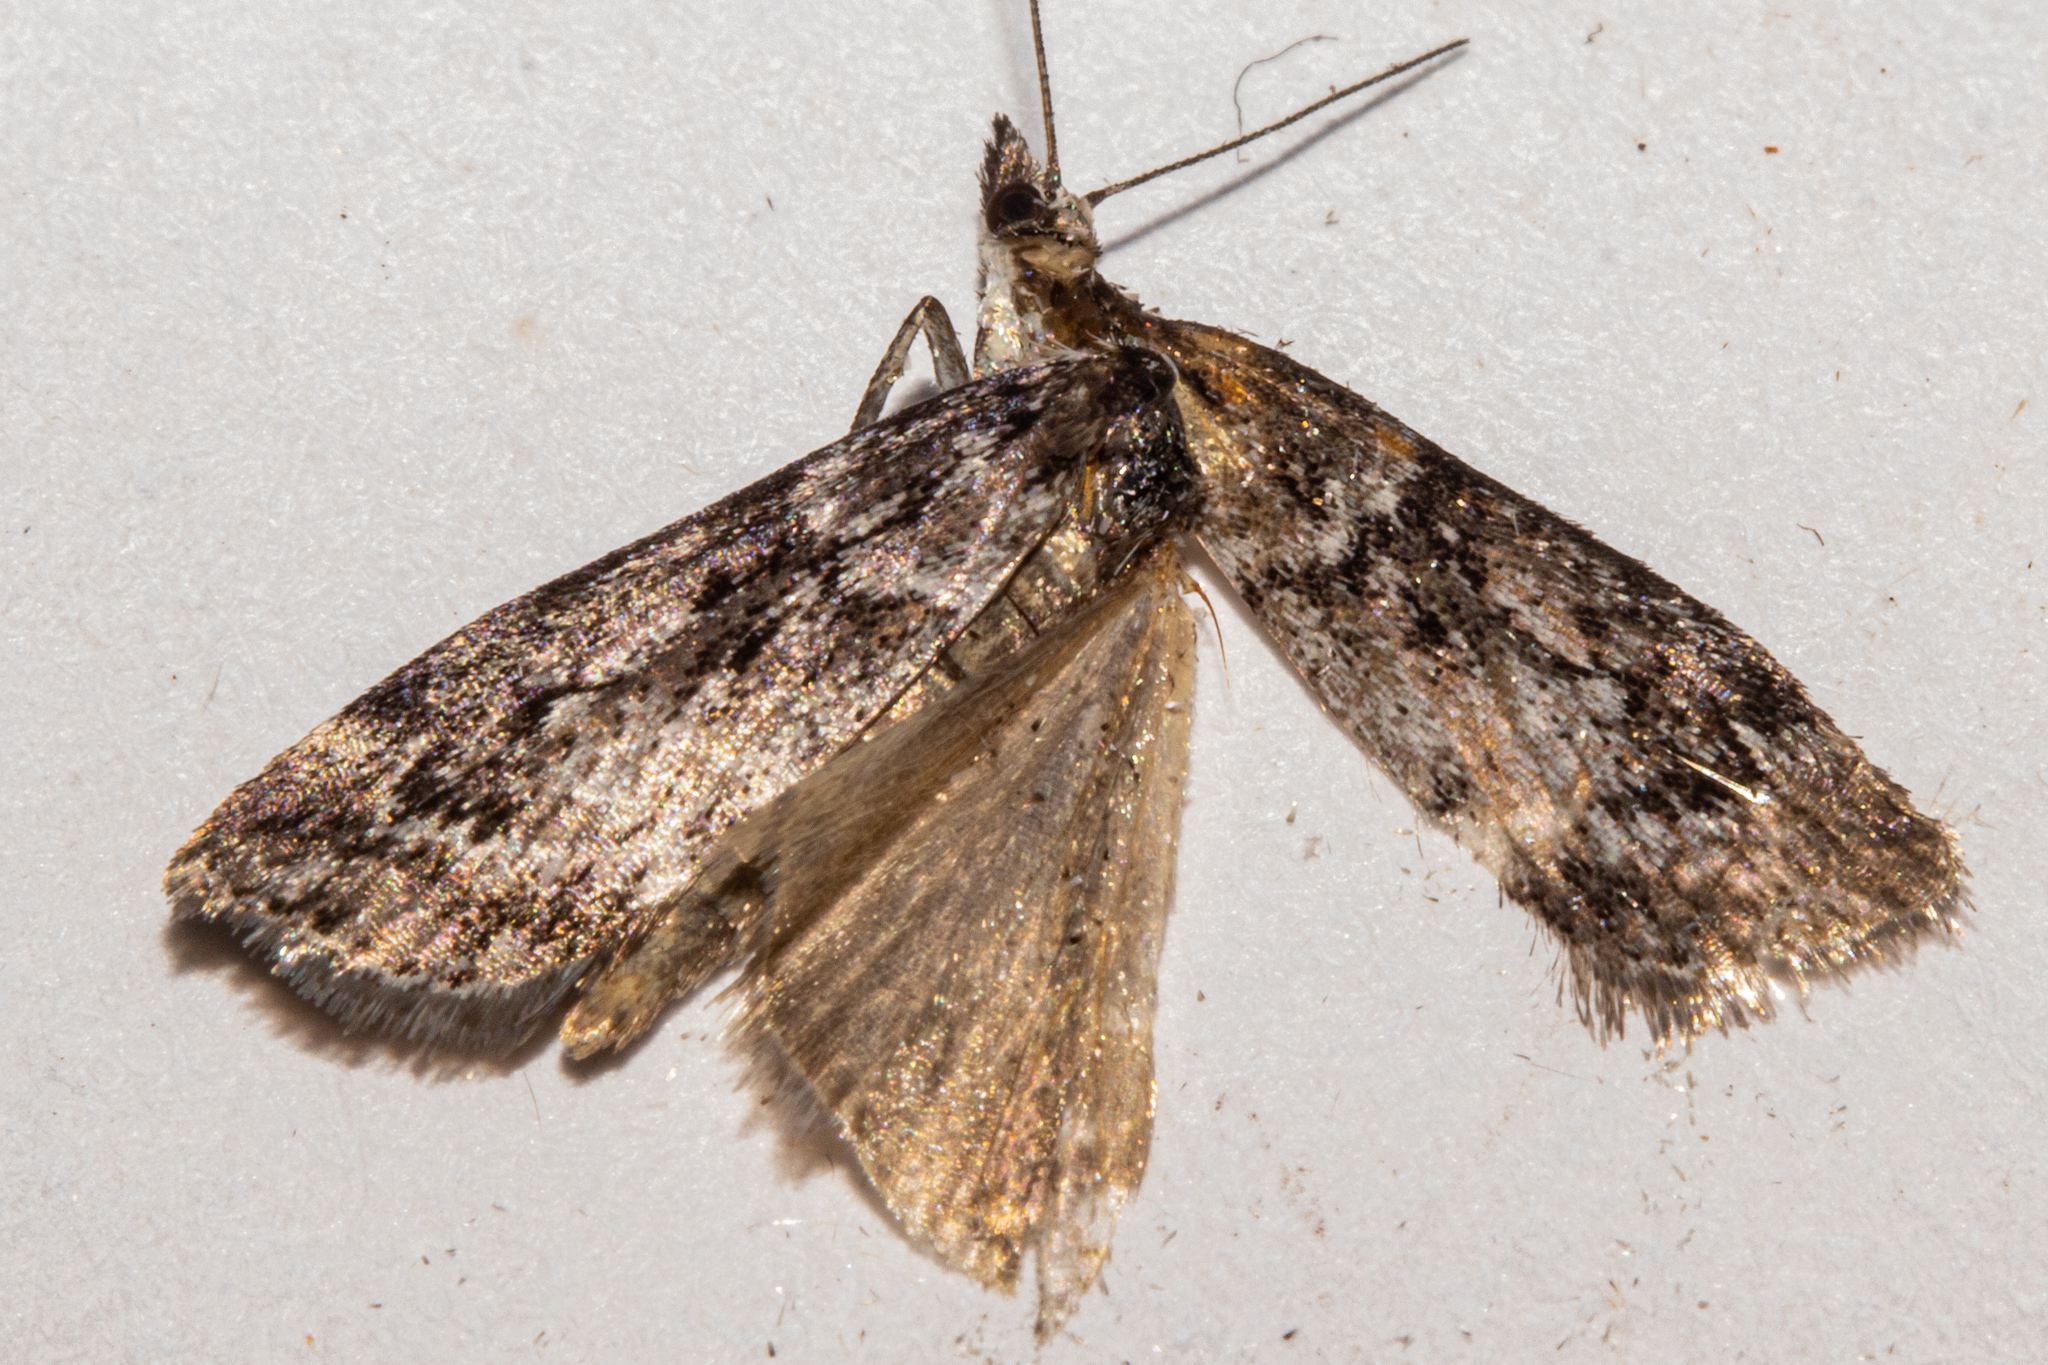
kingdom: Animalia
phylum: Arthropoda
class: Insecta
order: Lepidoptera
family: Crambidae
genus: Eudonia
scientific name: Eudonia luminatrix
